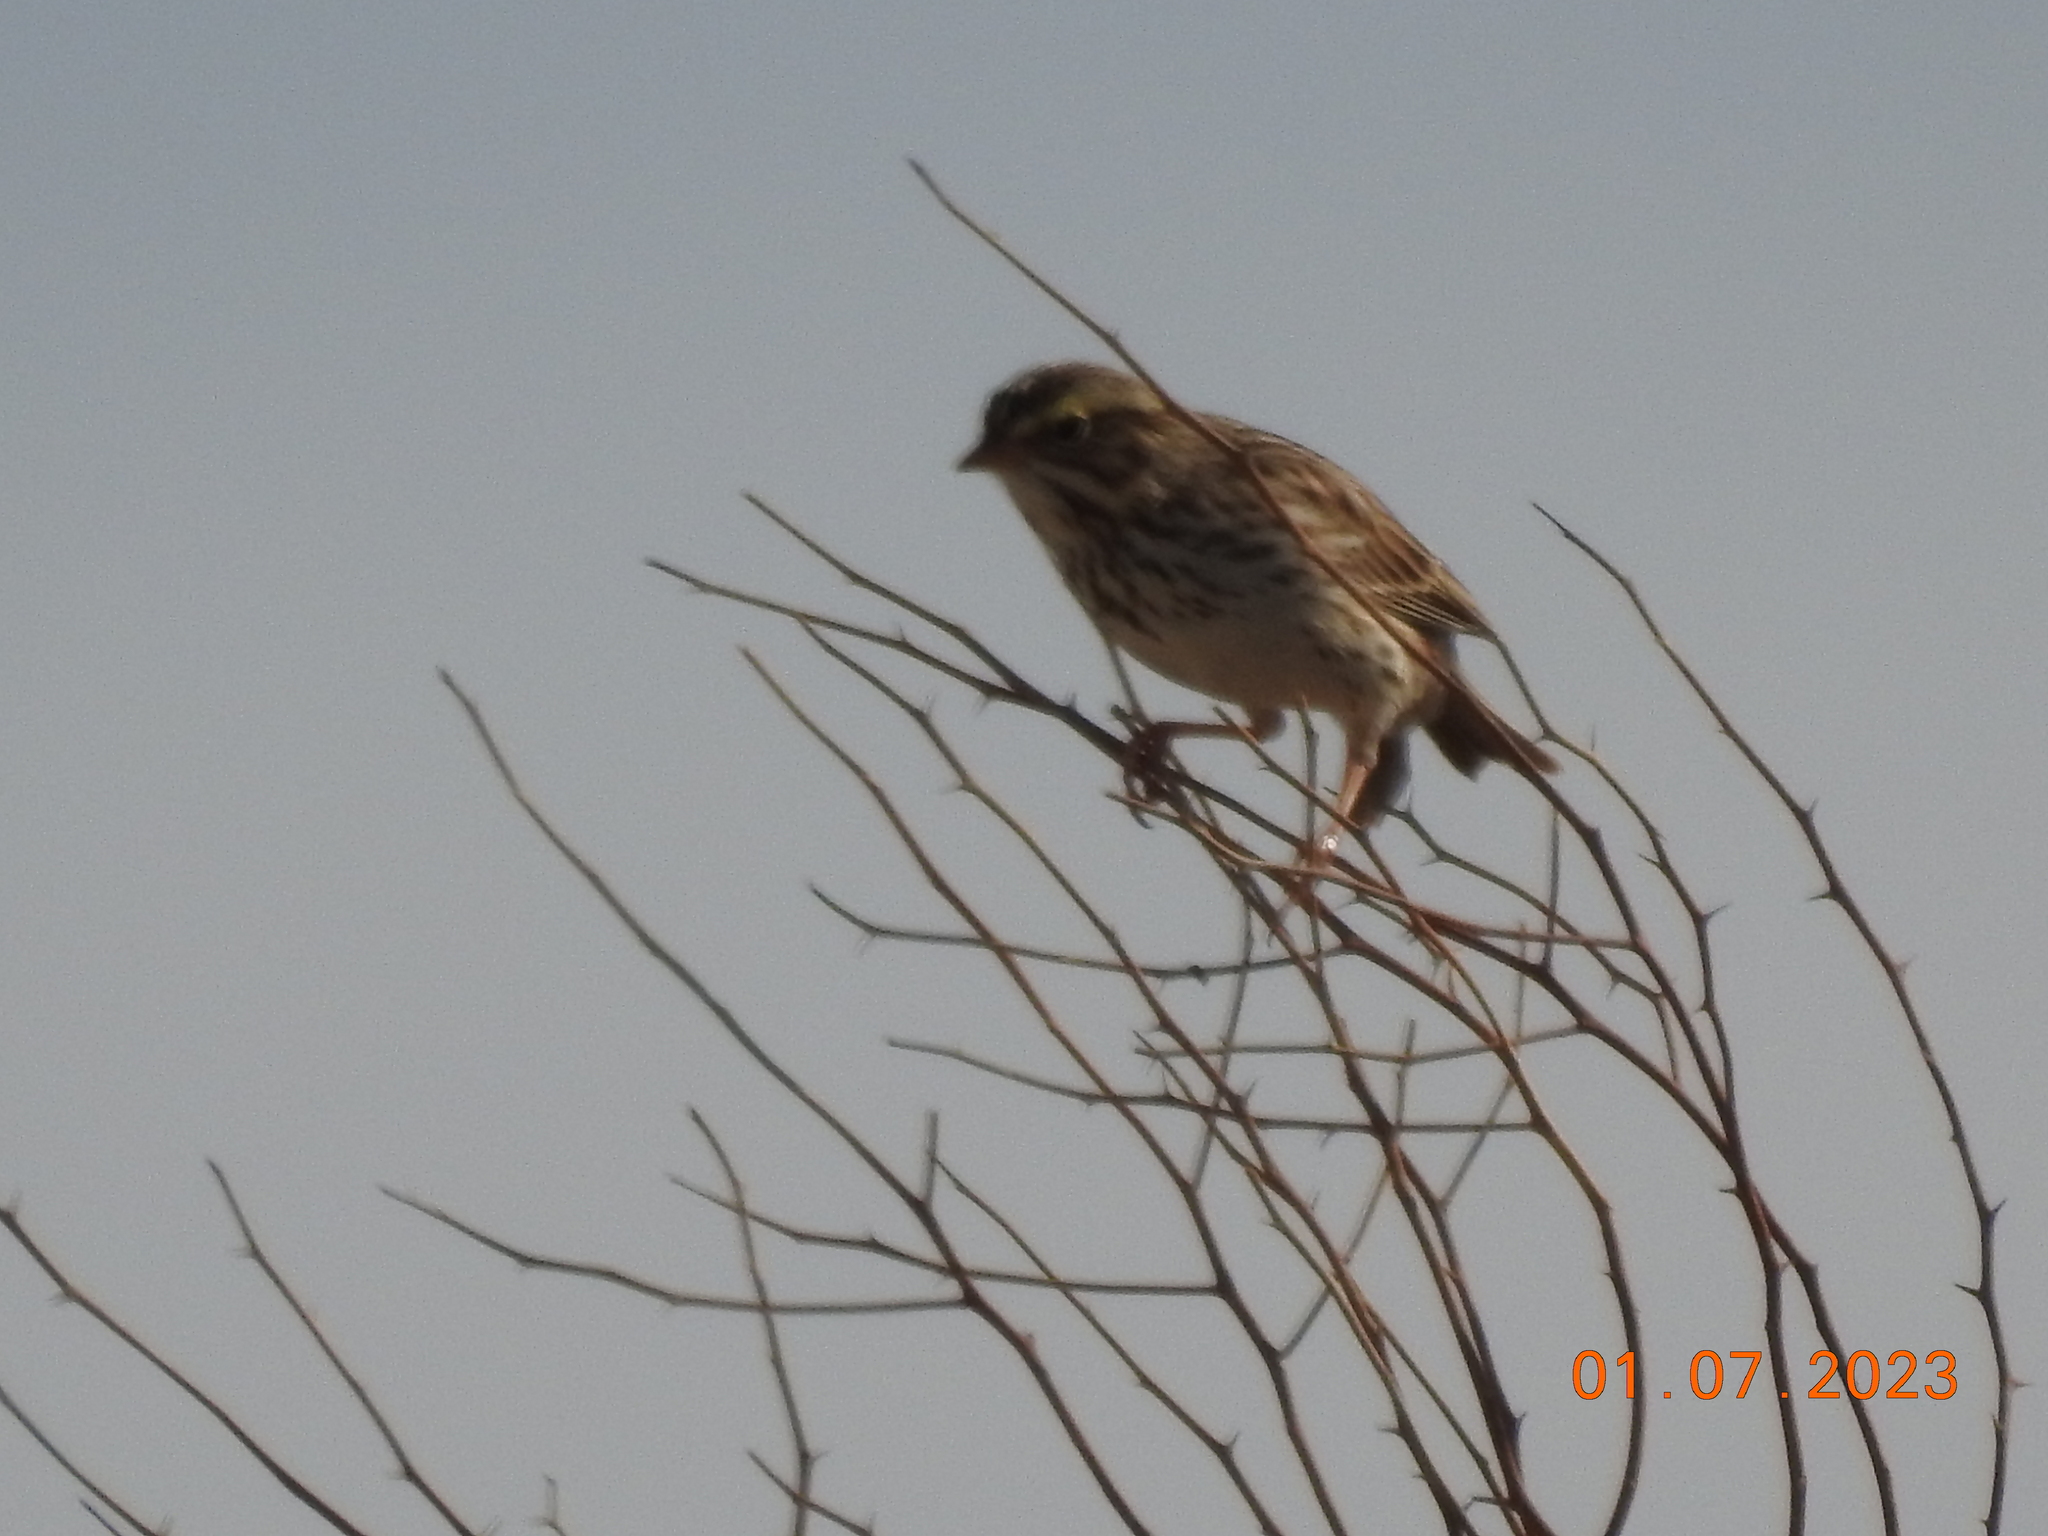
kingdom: Animalia
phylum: Chordata
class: Aves
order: Passeriformes
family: Passerellidae
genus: Passerculus
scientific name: Passerculus sandwichensis
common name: Savannah sparrow
